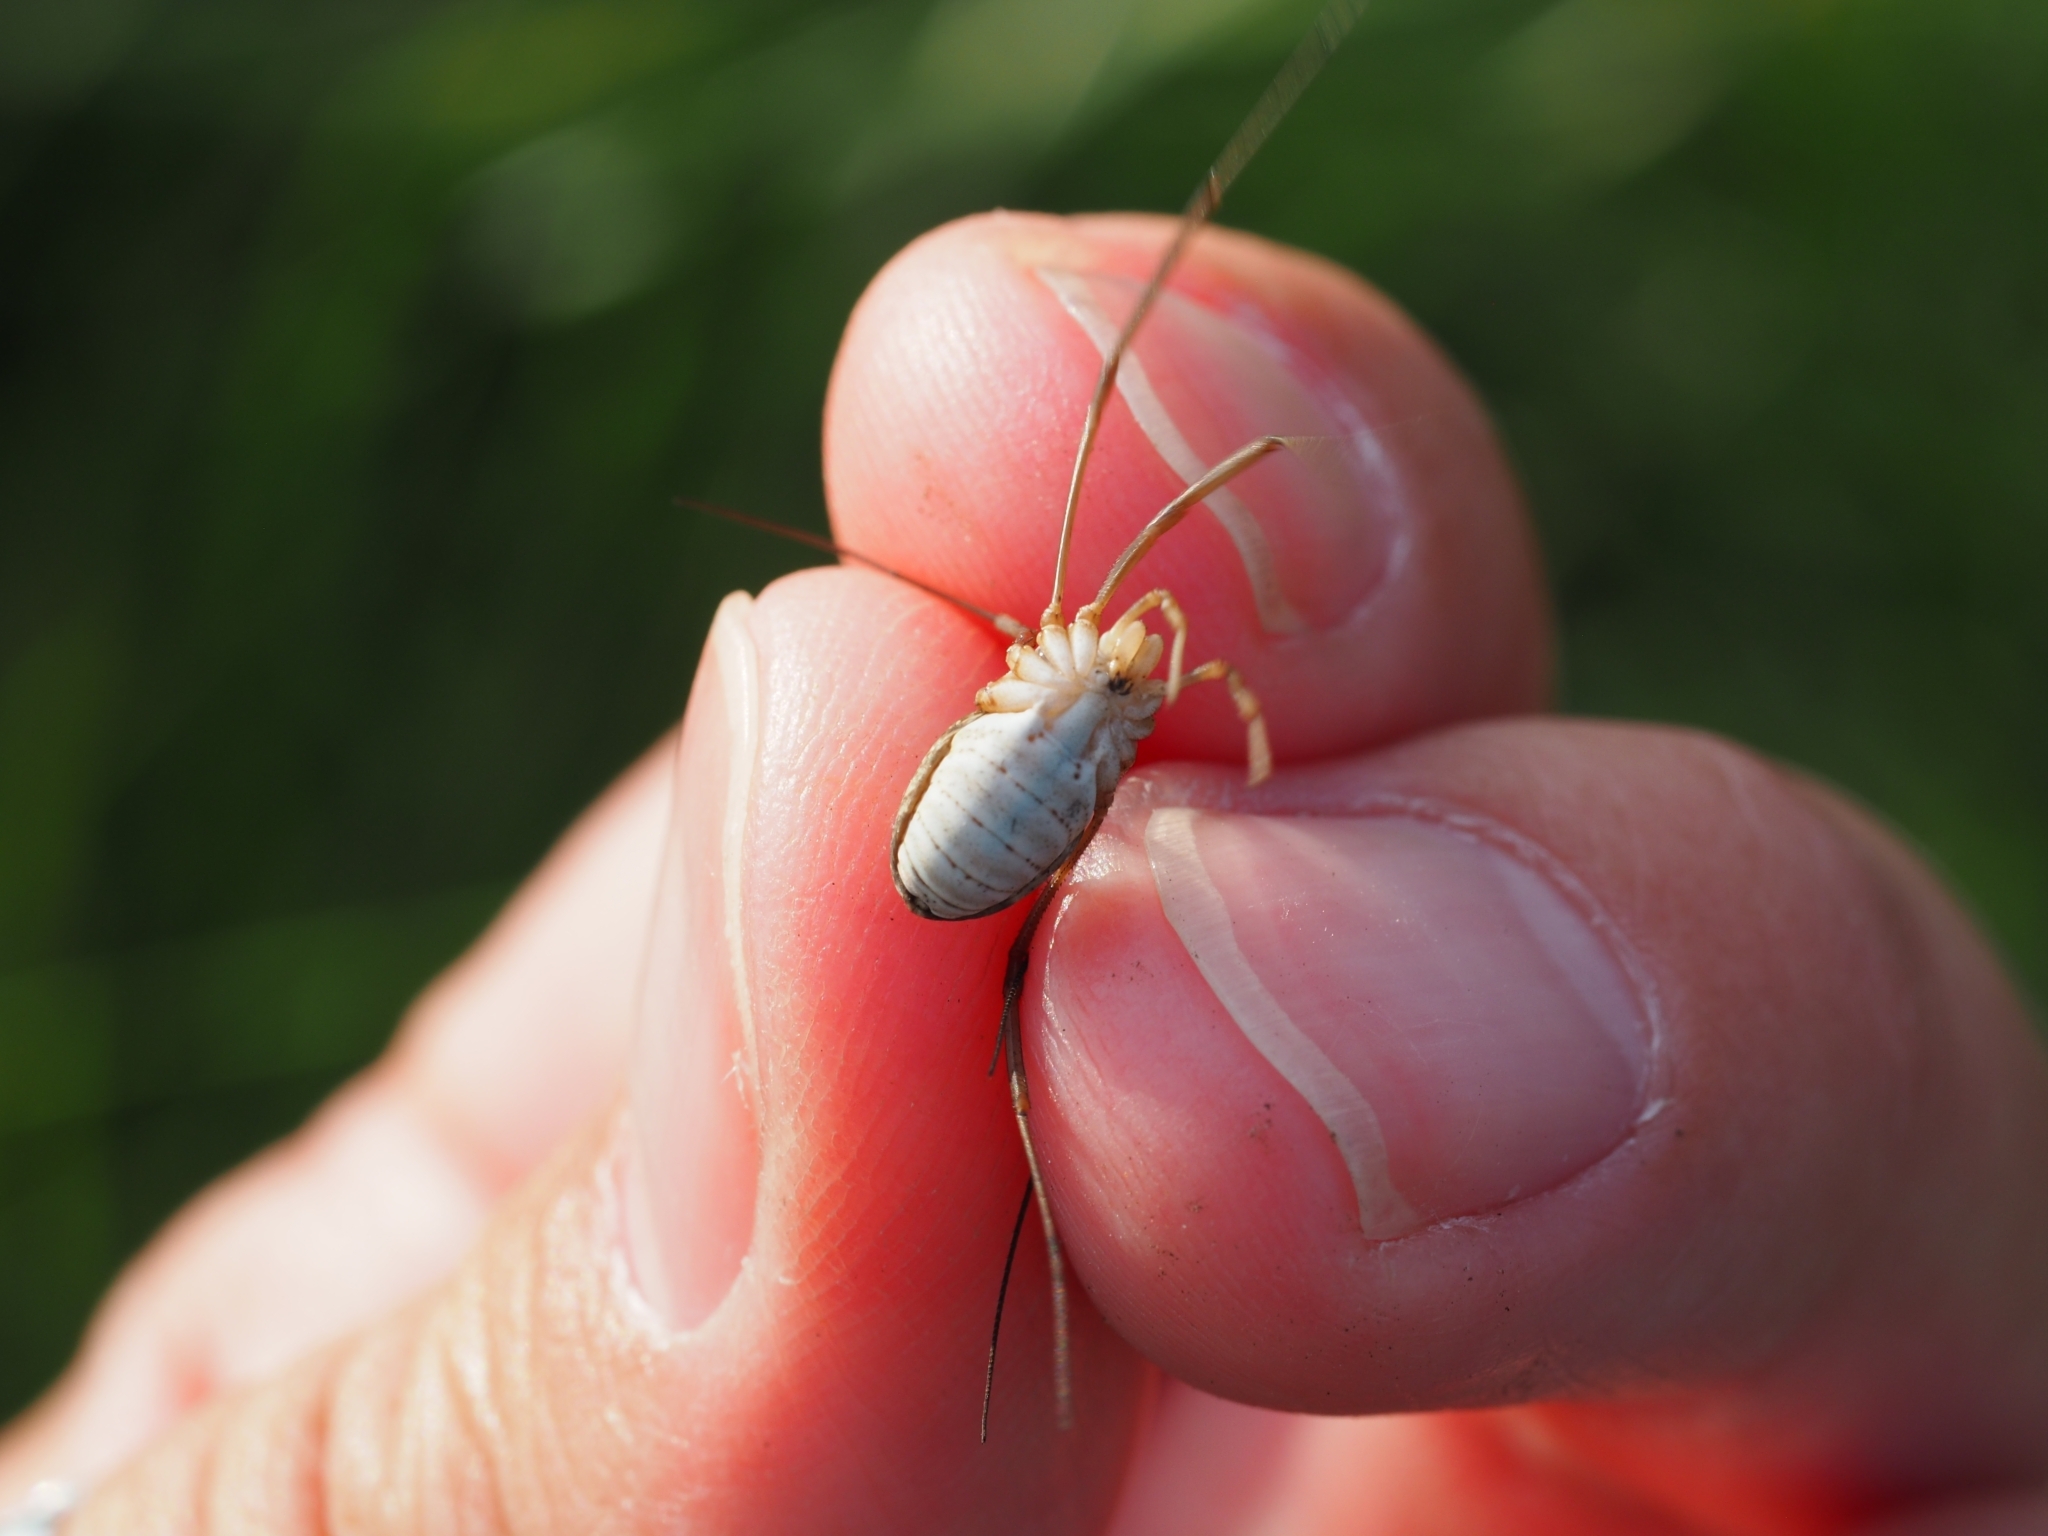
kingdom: Animalia
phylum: Arthropoda
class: Arachnida
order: Opiliones
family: Phalangiidae
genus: Mitopus
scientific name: Mitopus morio
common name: Saddleback harvestman
